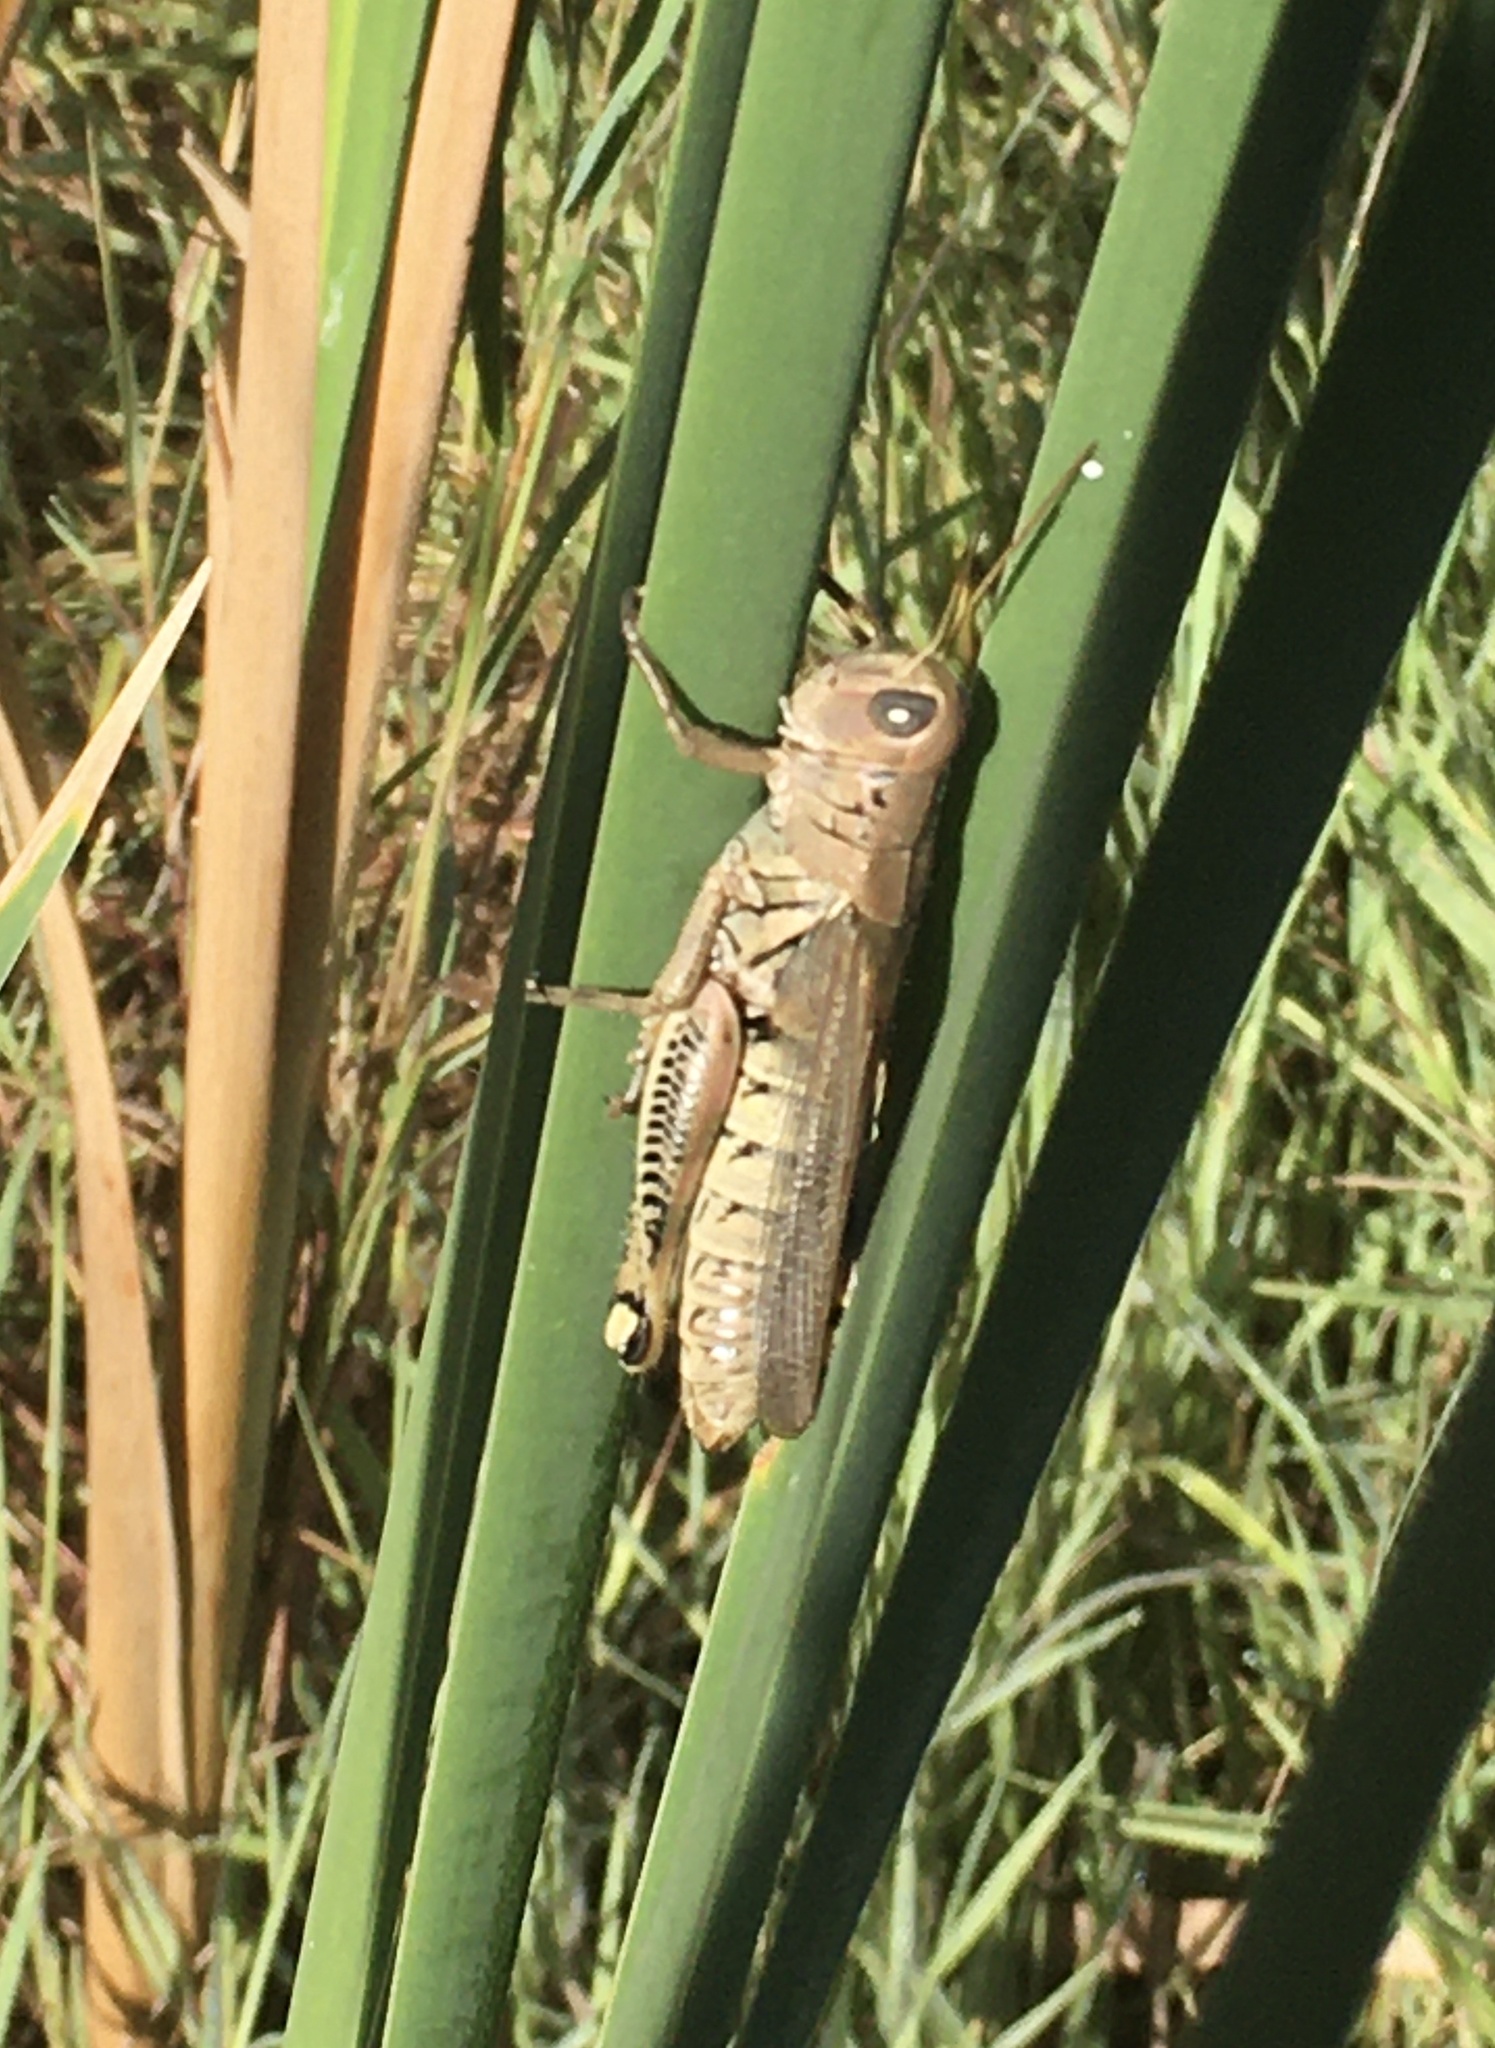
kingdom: Animalia
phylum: Arthropoda
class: Insecta
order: Orthoptera
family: Acrididae
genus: Melanoplus
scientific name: Melanoplus differentialis
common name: Differential grasshopper
